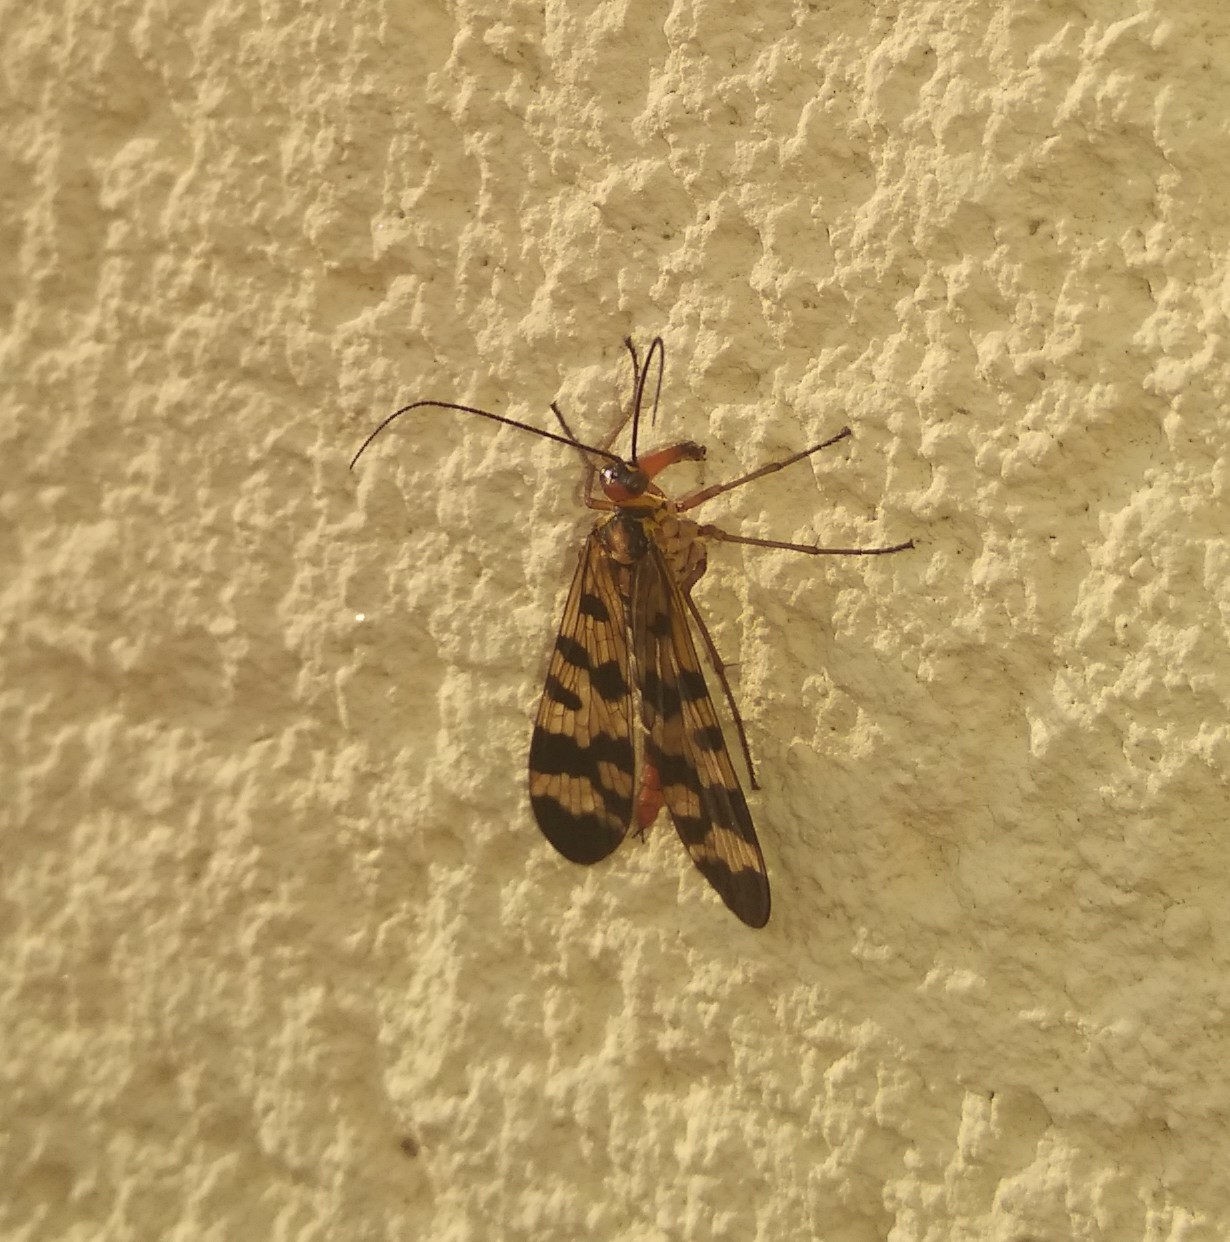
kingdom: Animalia
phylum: Arthropoda
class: Insecta
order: Mecoptera
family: Panorpidae
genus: Panorpa
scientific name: Panorpa meridionalis
